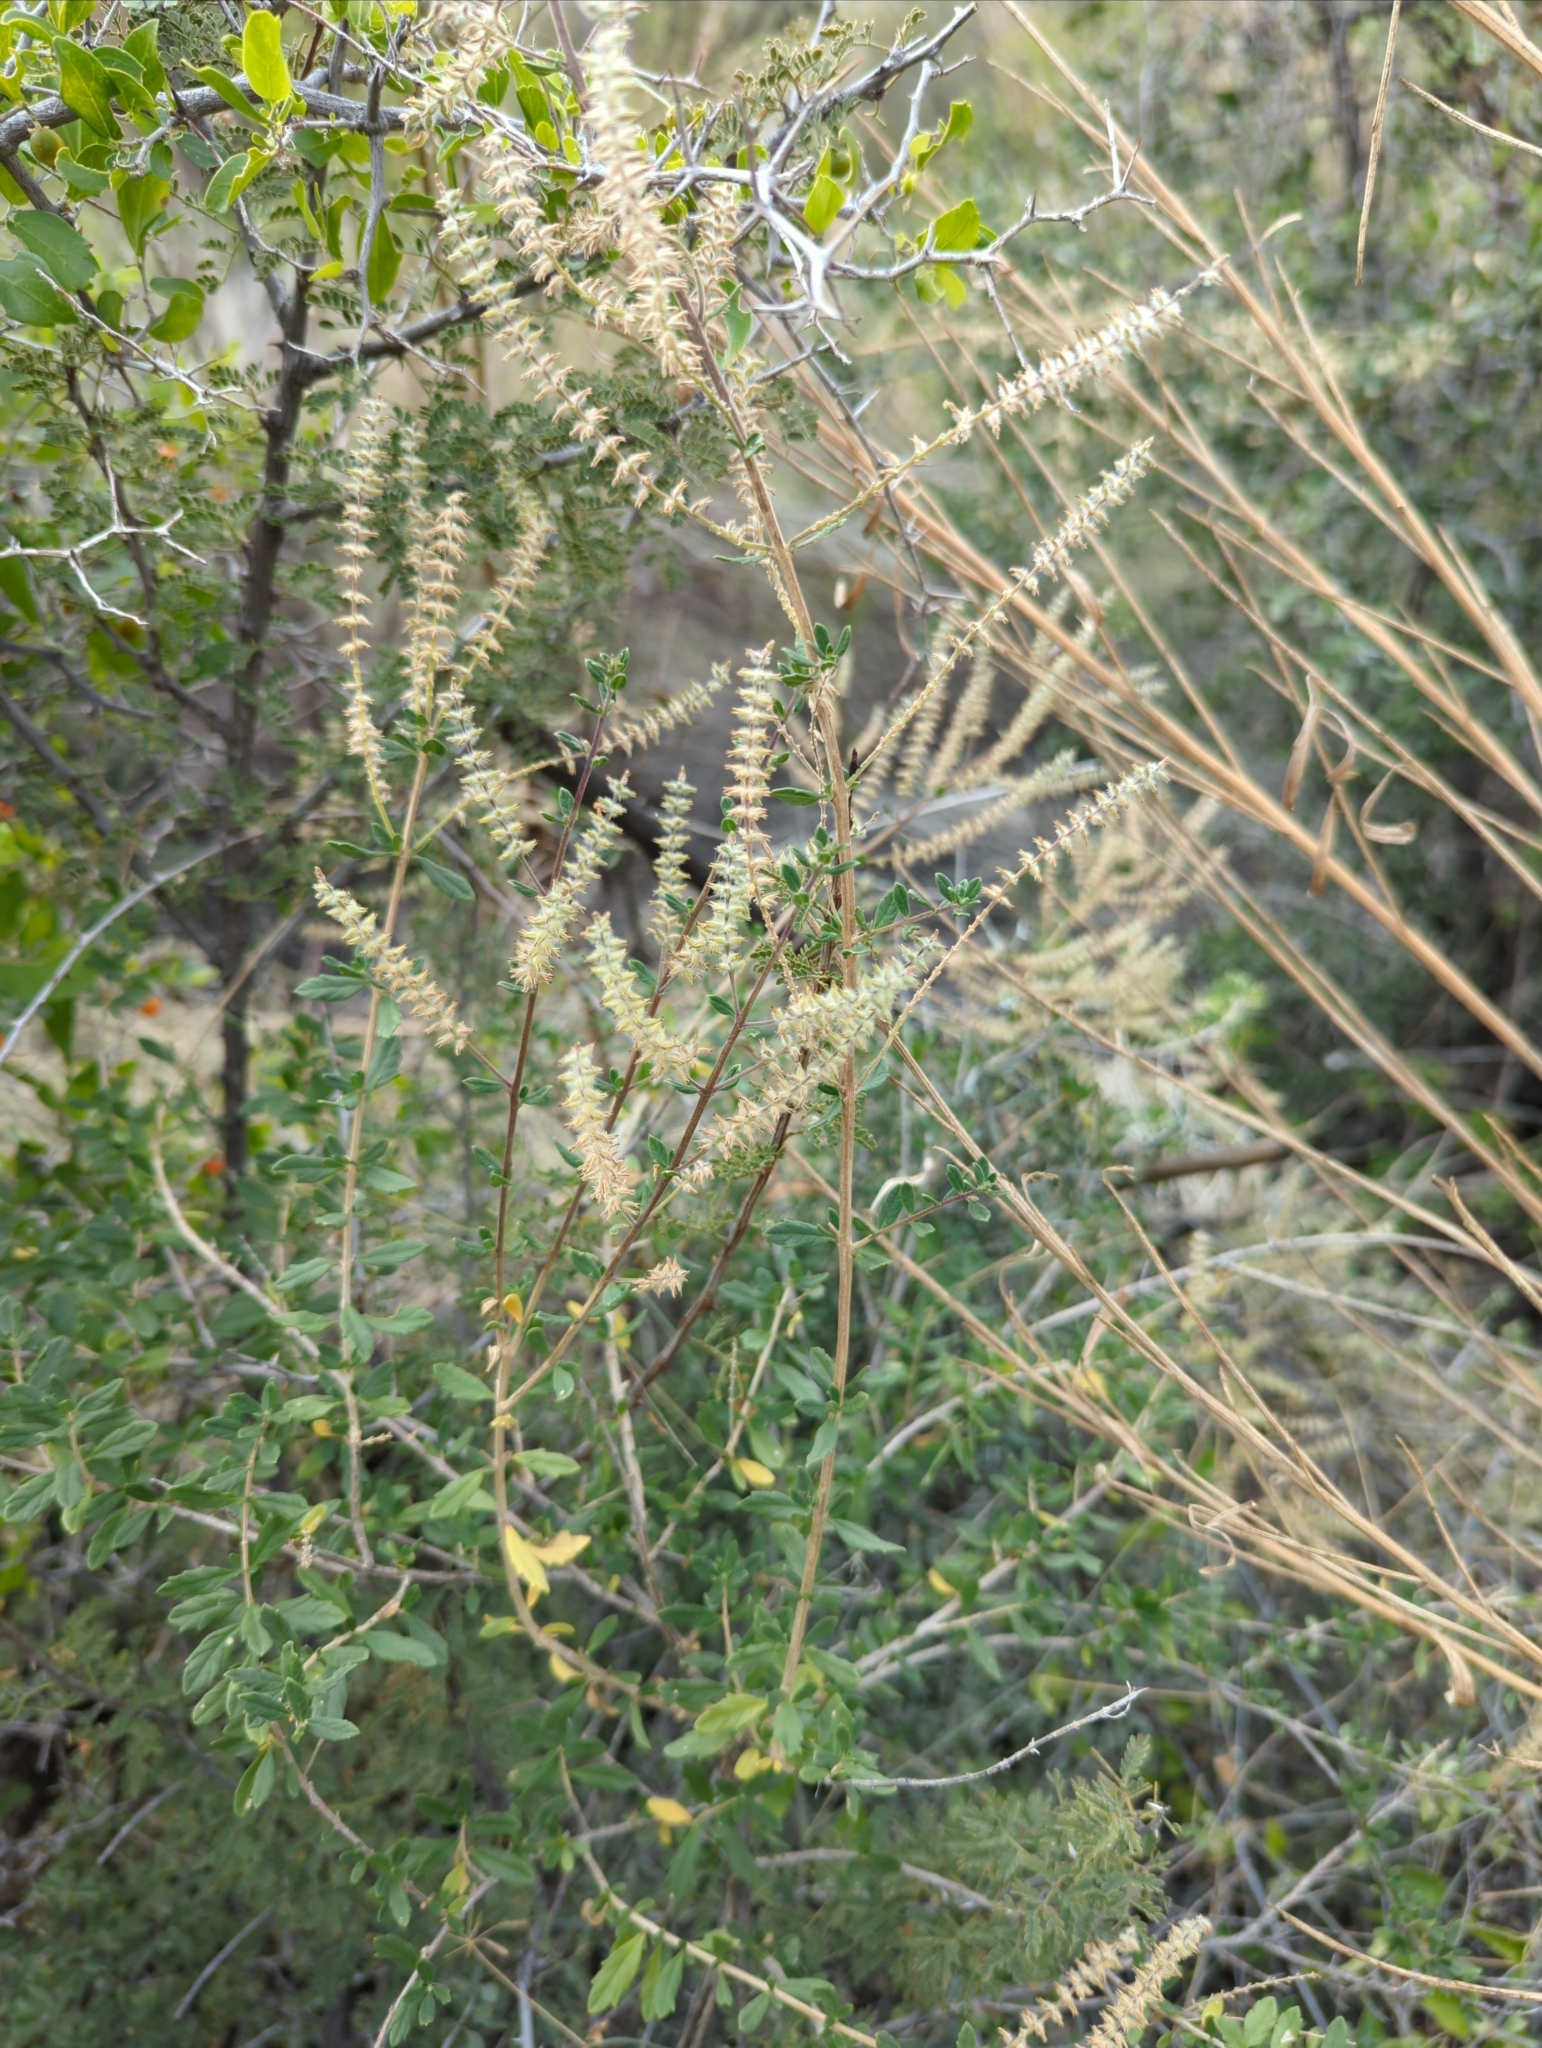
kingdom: Plantae
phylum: Tracheophyta
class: Magnoliopsida
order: Lamiales
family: Verbenaceae
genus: Aloysia
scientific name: Aloysia gratissima
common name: Common bee-brush
